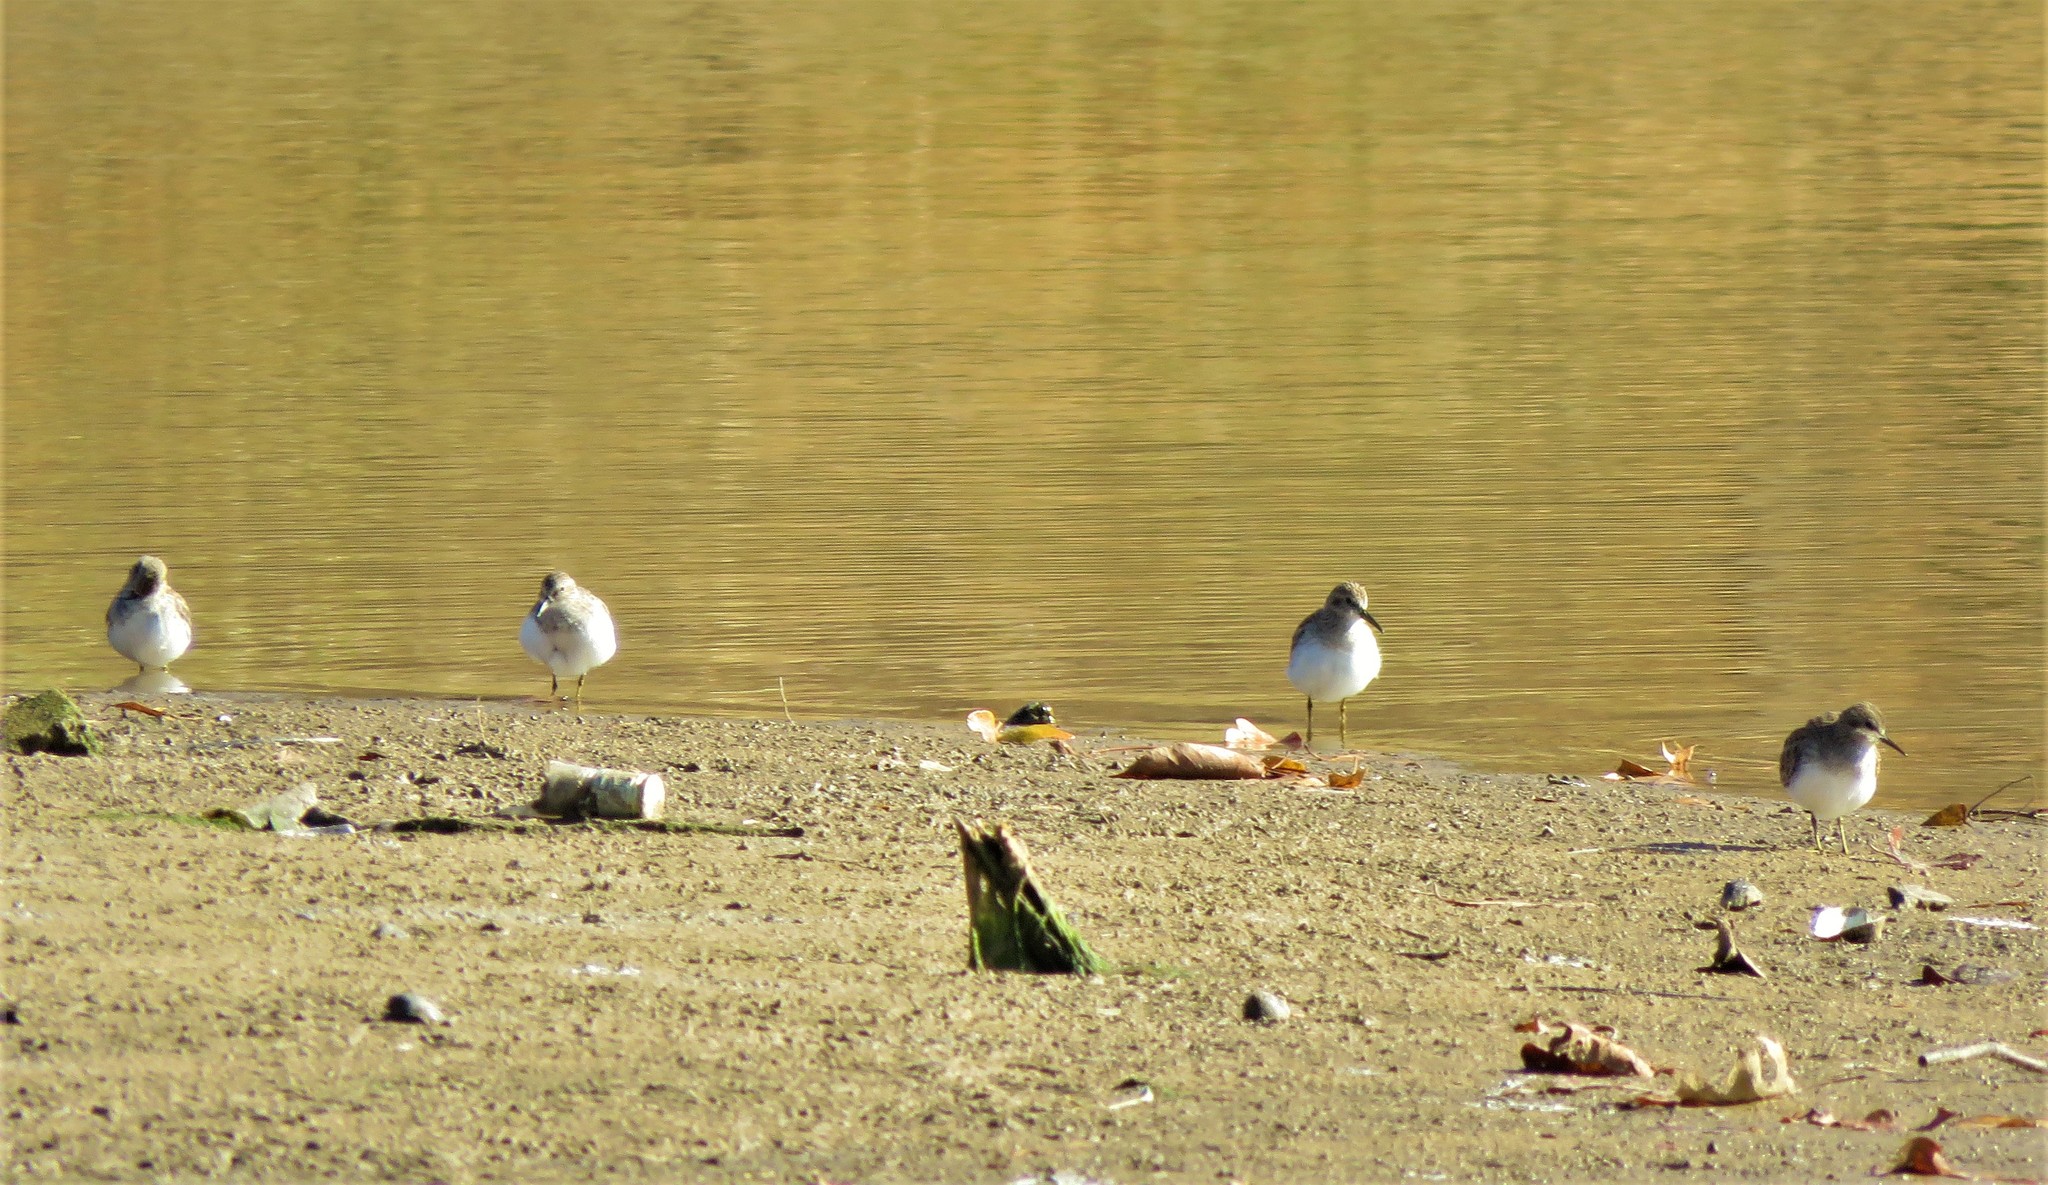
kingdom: Animalia
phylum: Chordata
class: Aves
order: Charadriiformes
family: Scolopacidae
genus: Calidris
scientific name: Calidris minutilla
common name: Least sandpiper
